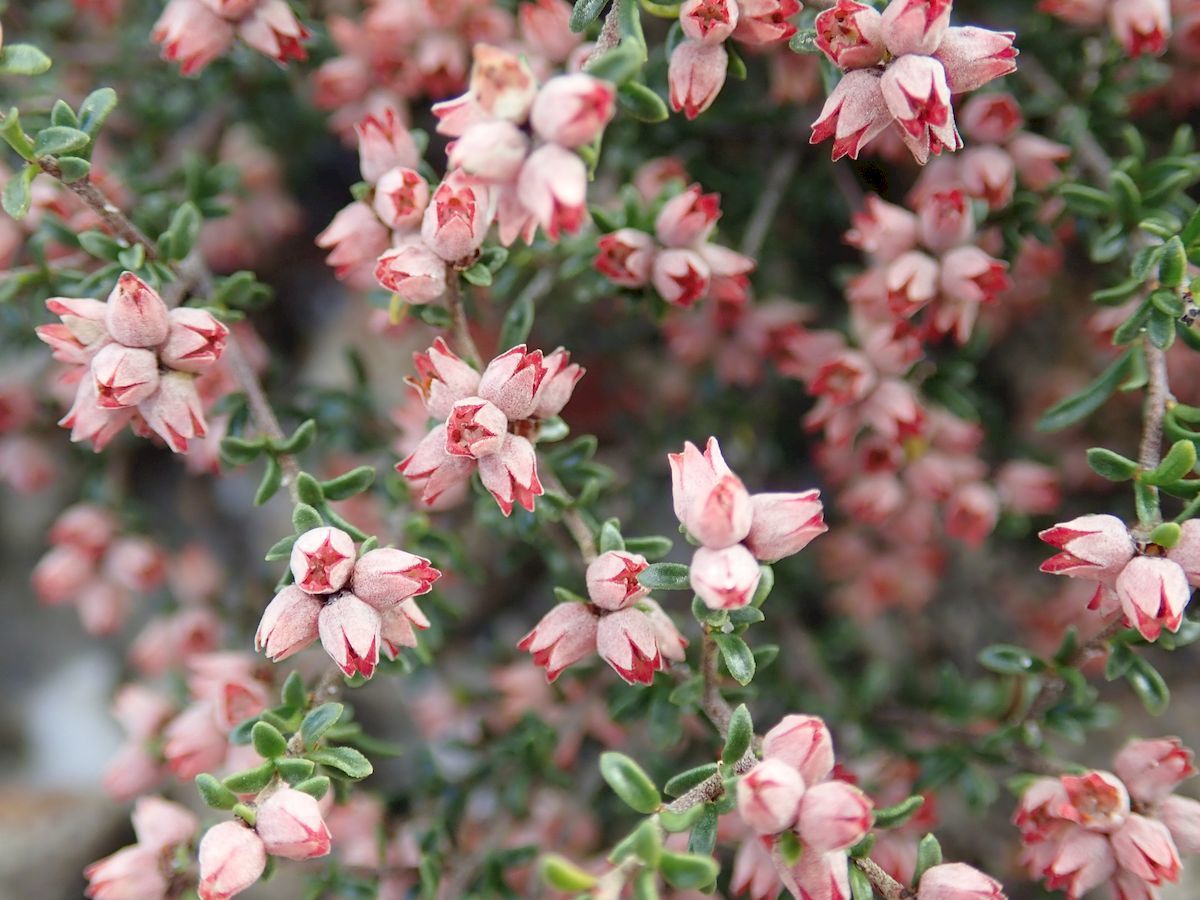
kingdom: Plantae
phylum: Tracheophyta
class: Magnoliopsida
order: Rosales
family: Rhamnaceae
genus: Cryptandra
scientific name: Cryptandra amara
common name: Bitter cryptandra
